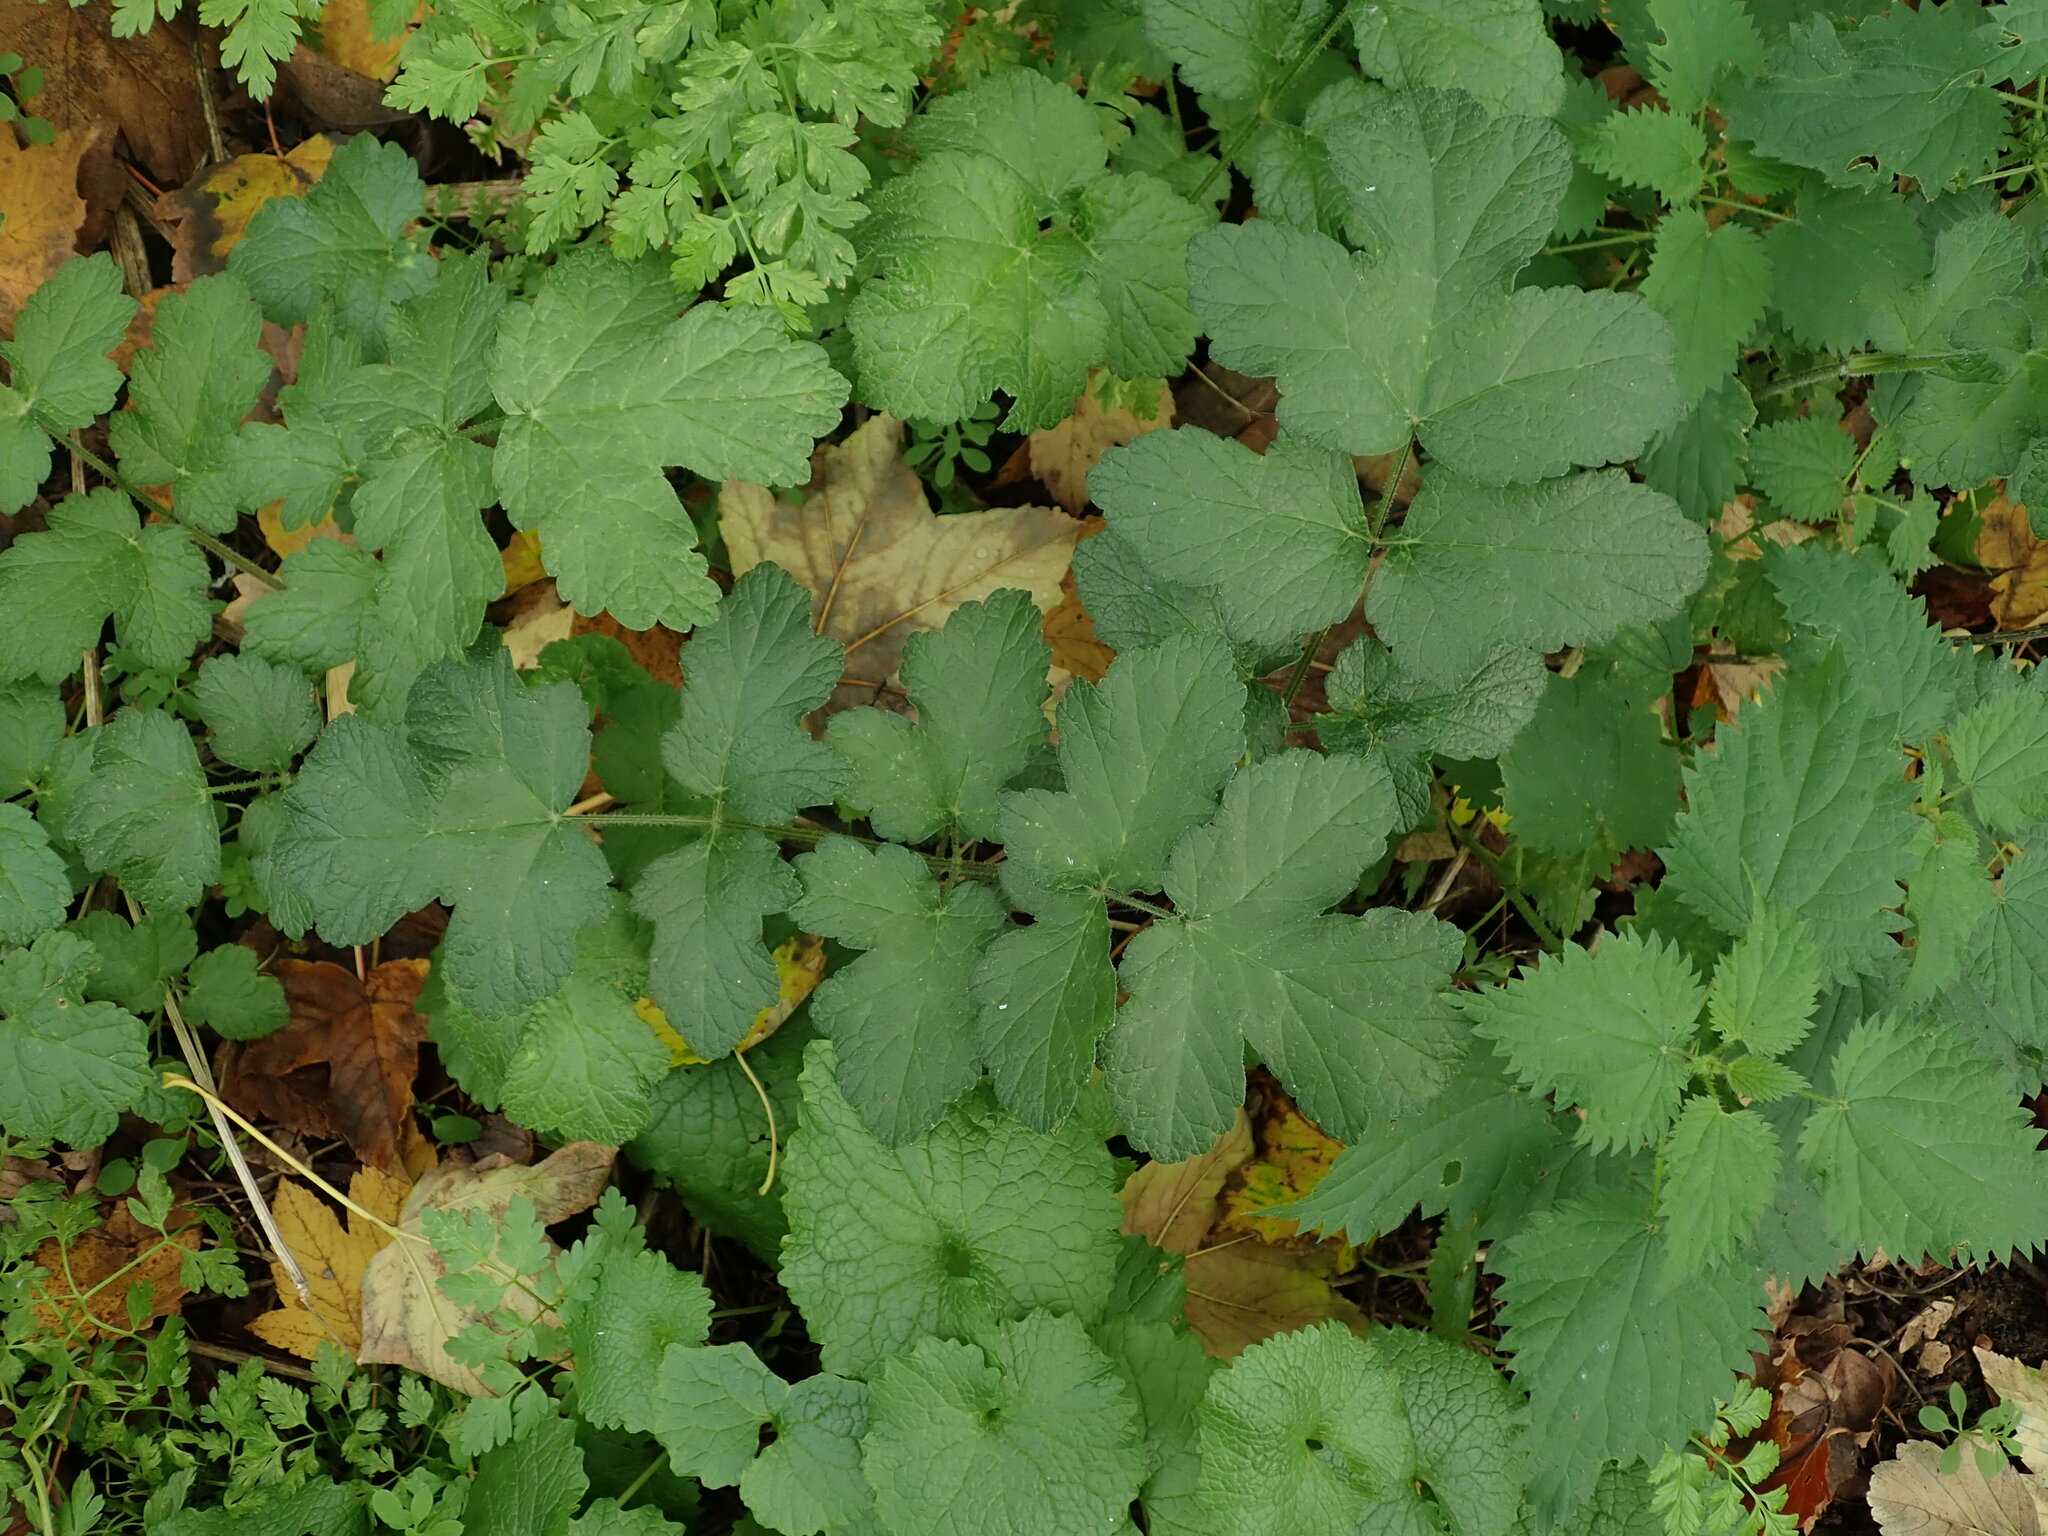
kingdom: Plantae
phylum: Tracheophyta
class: Magnoliopsida
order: Apiales
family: Apiaceae
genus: Heracleum
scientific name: Heracleum sphondylium
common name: Hogweed
